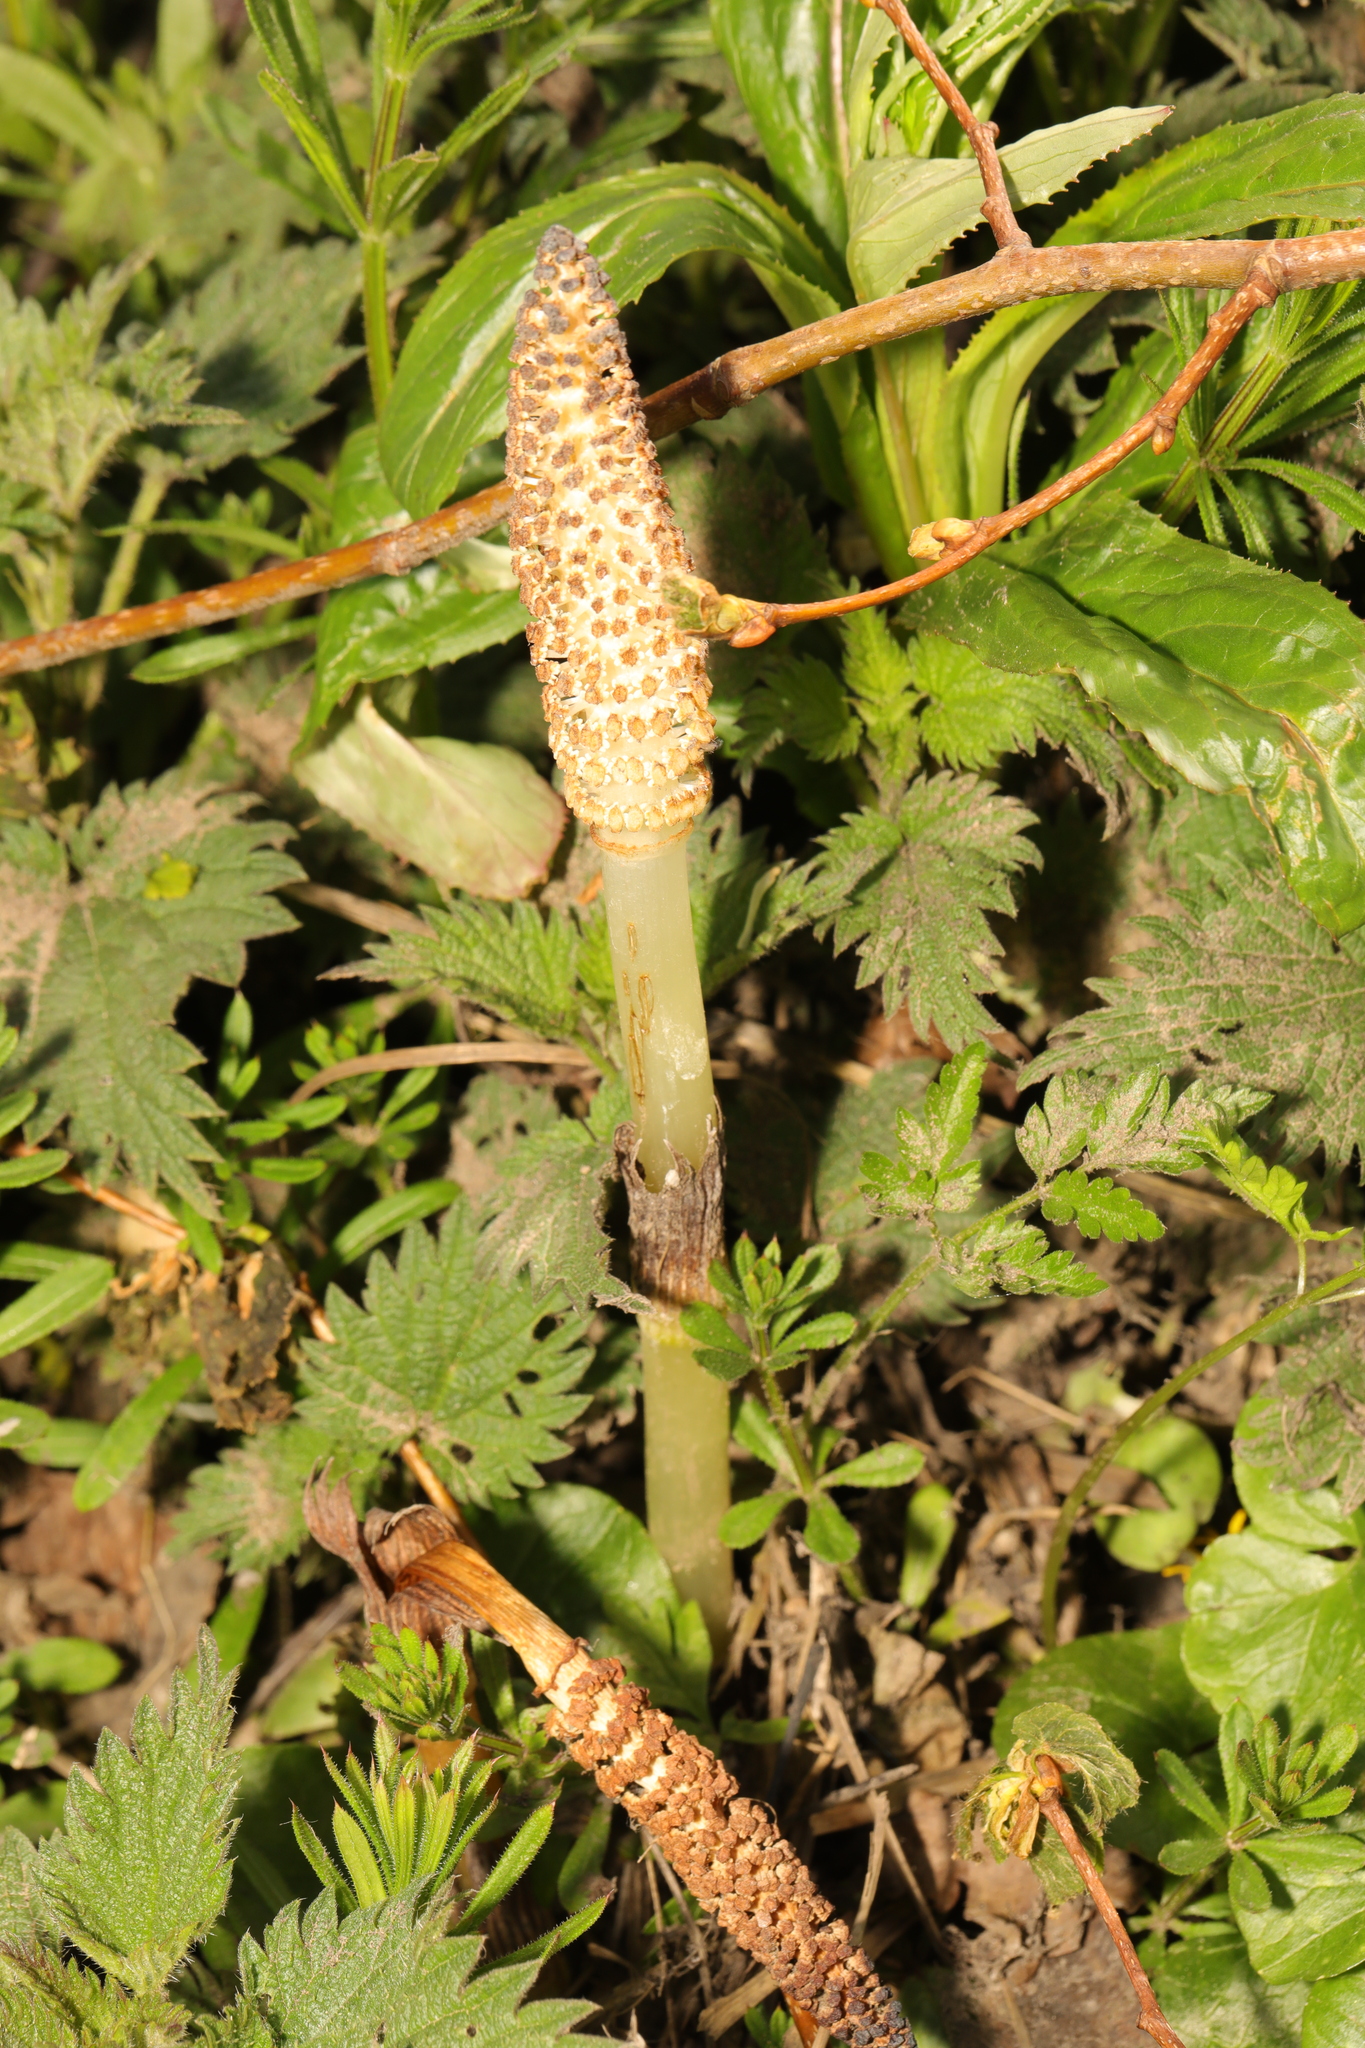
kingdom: Plantae
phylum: Tracheophyta
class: Polypodiopsida
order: Equisetales
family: Equisetaceae
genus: Equisetum
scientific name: Equisetum telmateia
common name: Great horsetail
